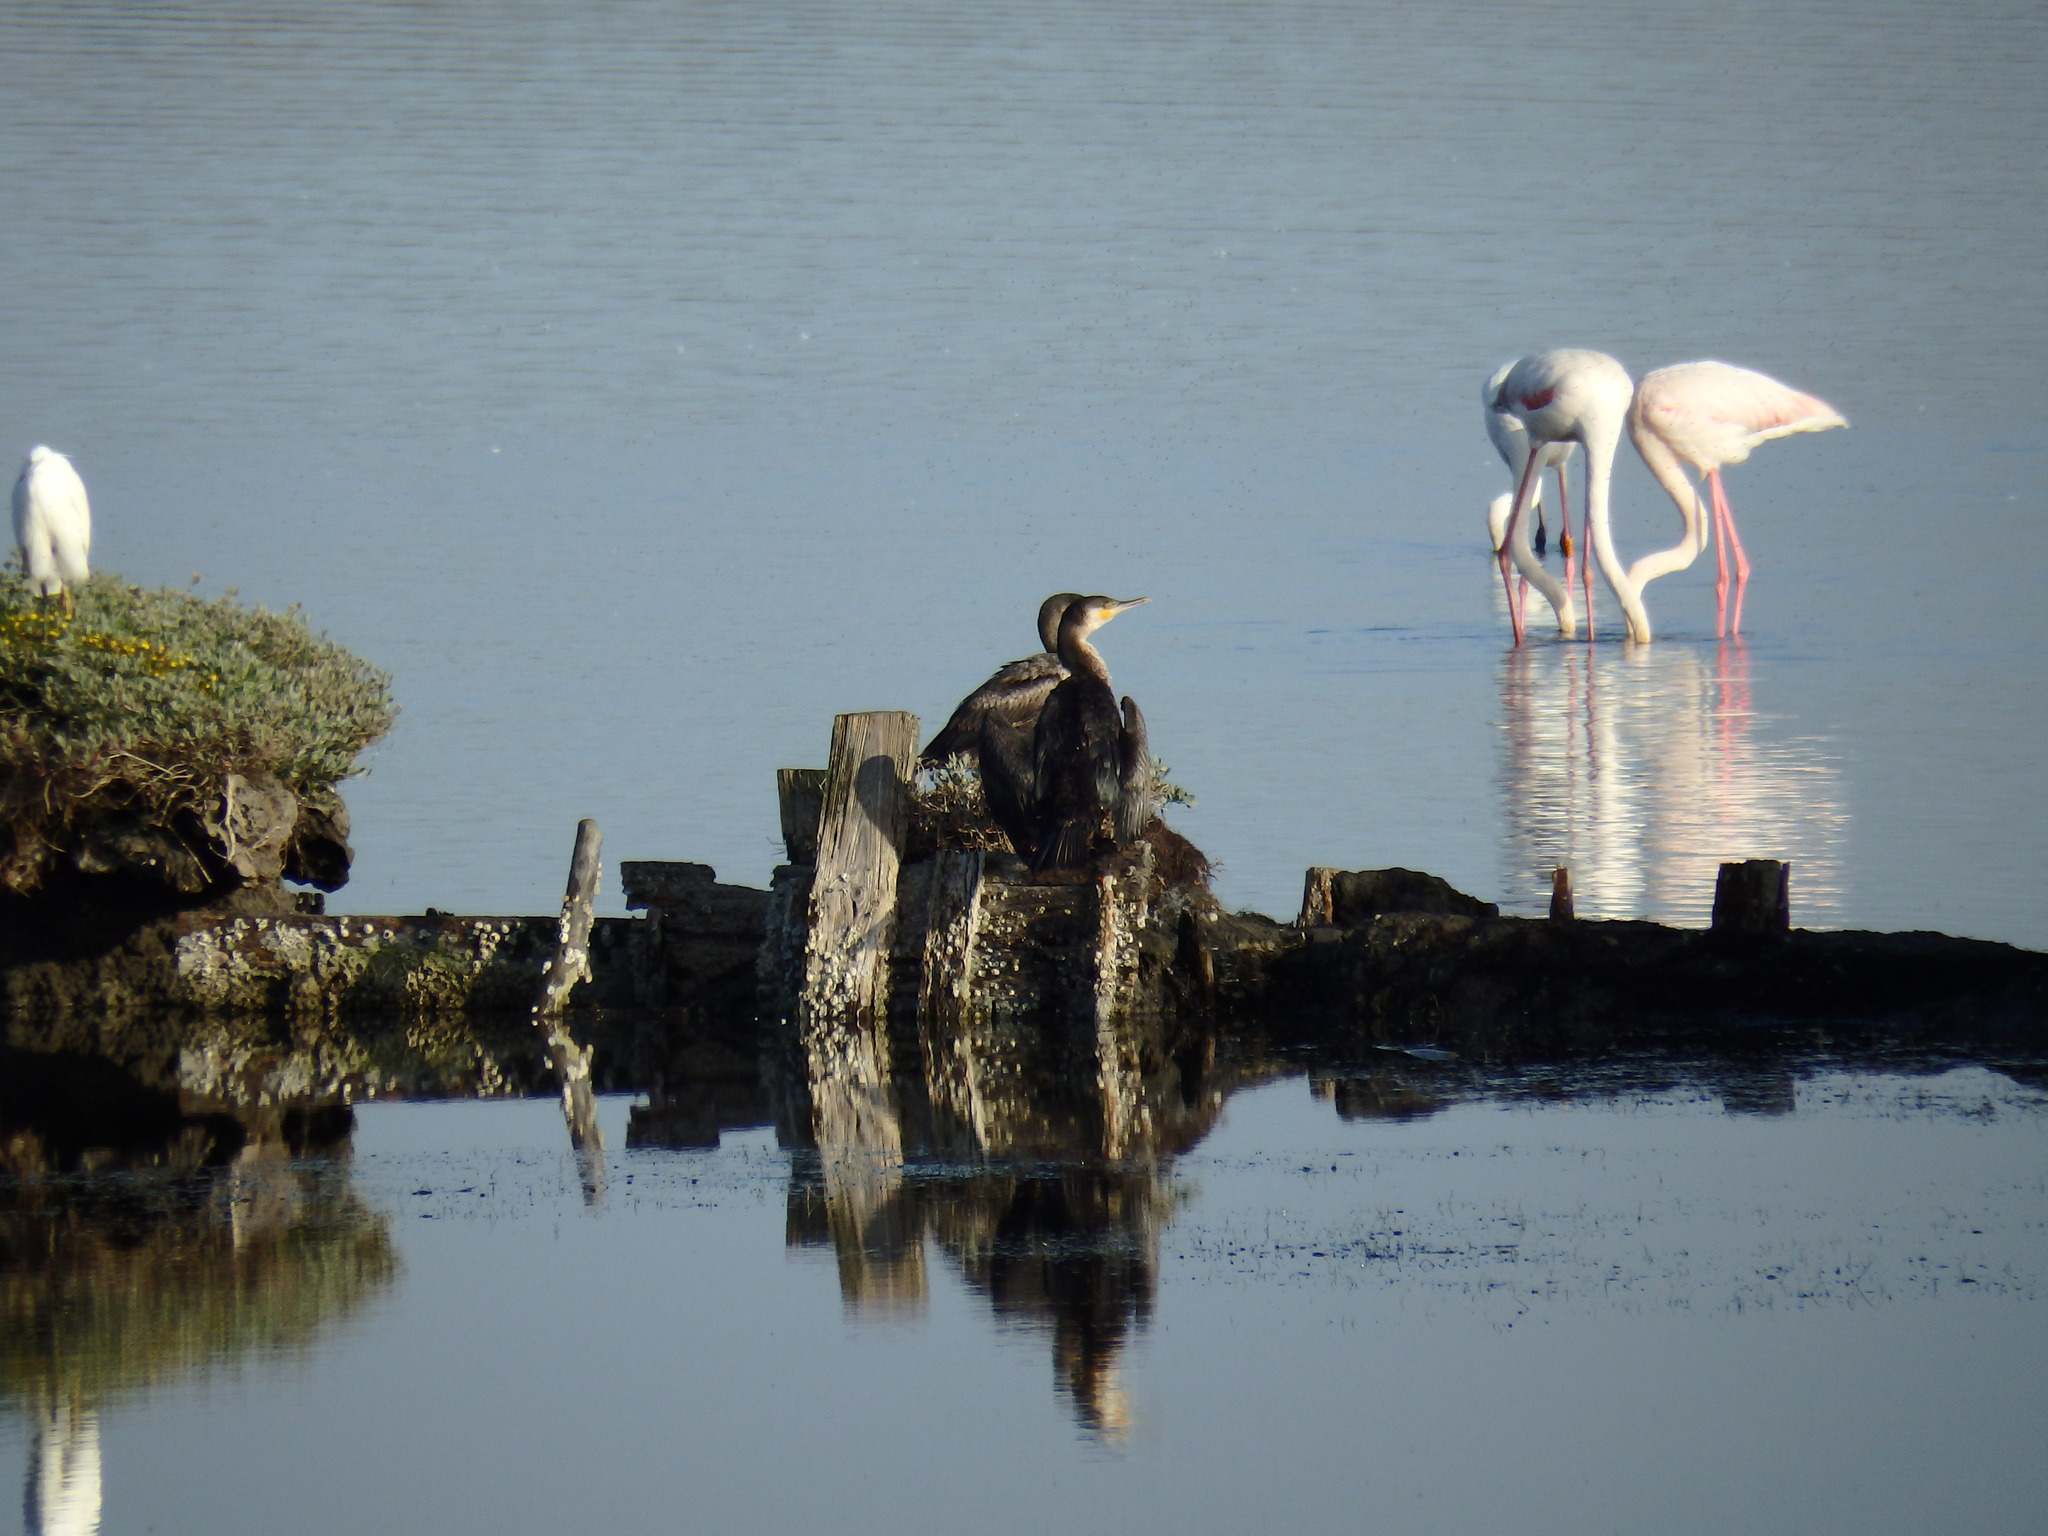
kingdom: Animalia
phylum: Chordata
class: Aves
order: Suliformes
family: Phalacrocoracidae
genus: Phalacrocorax
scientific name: Phalacrocorax carbo
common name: Great cormorant
